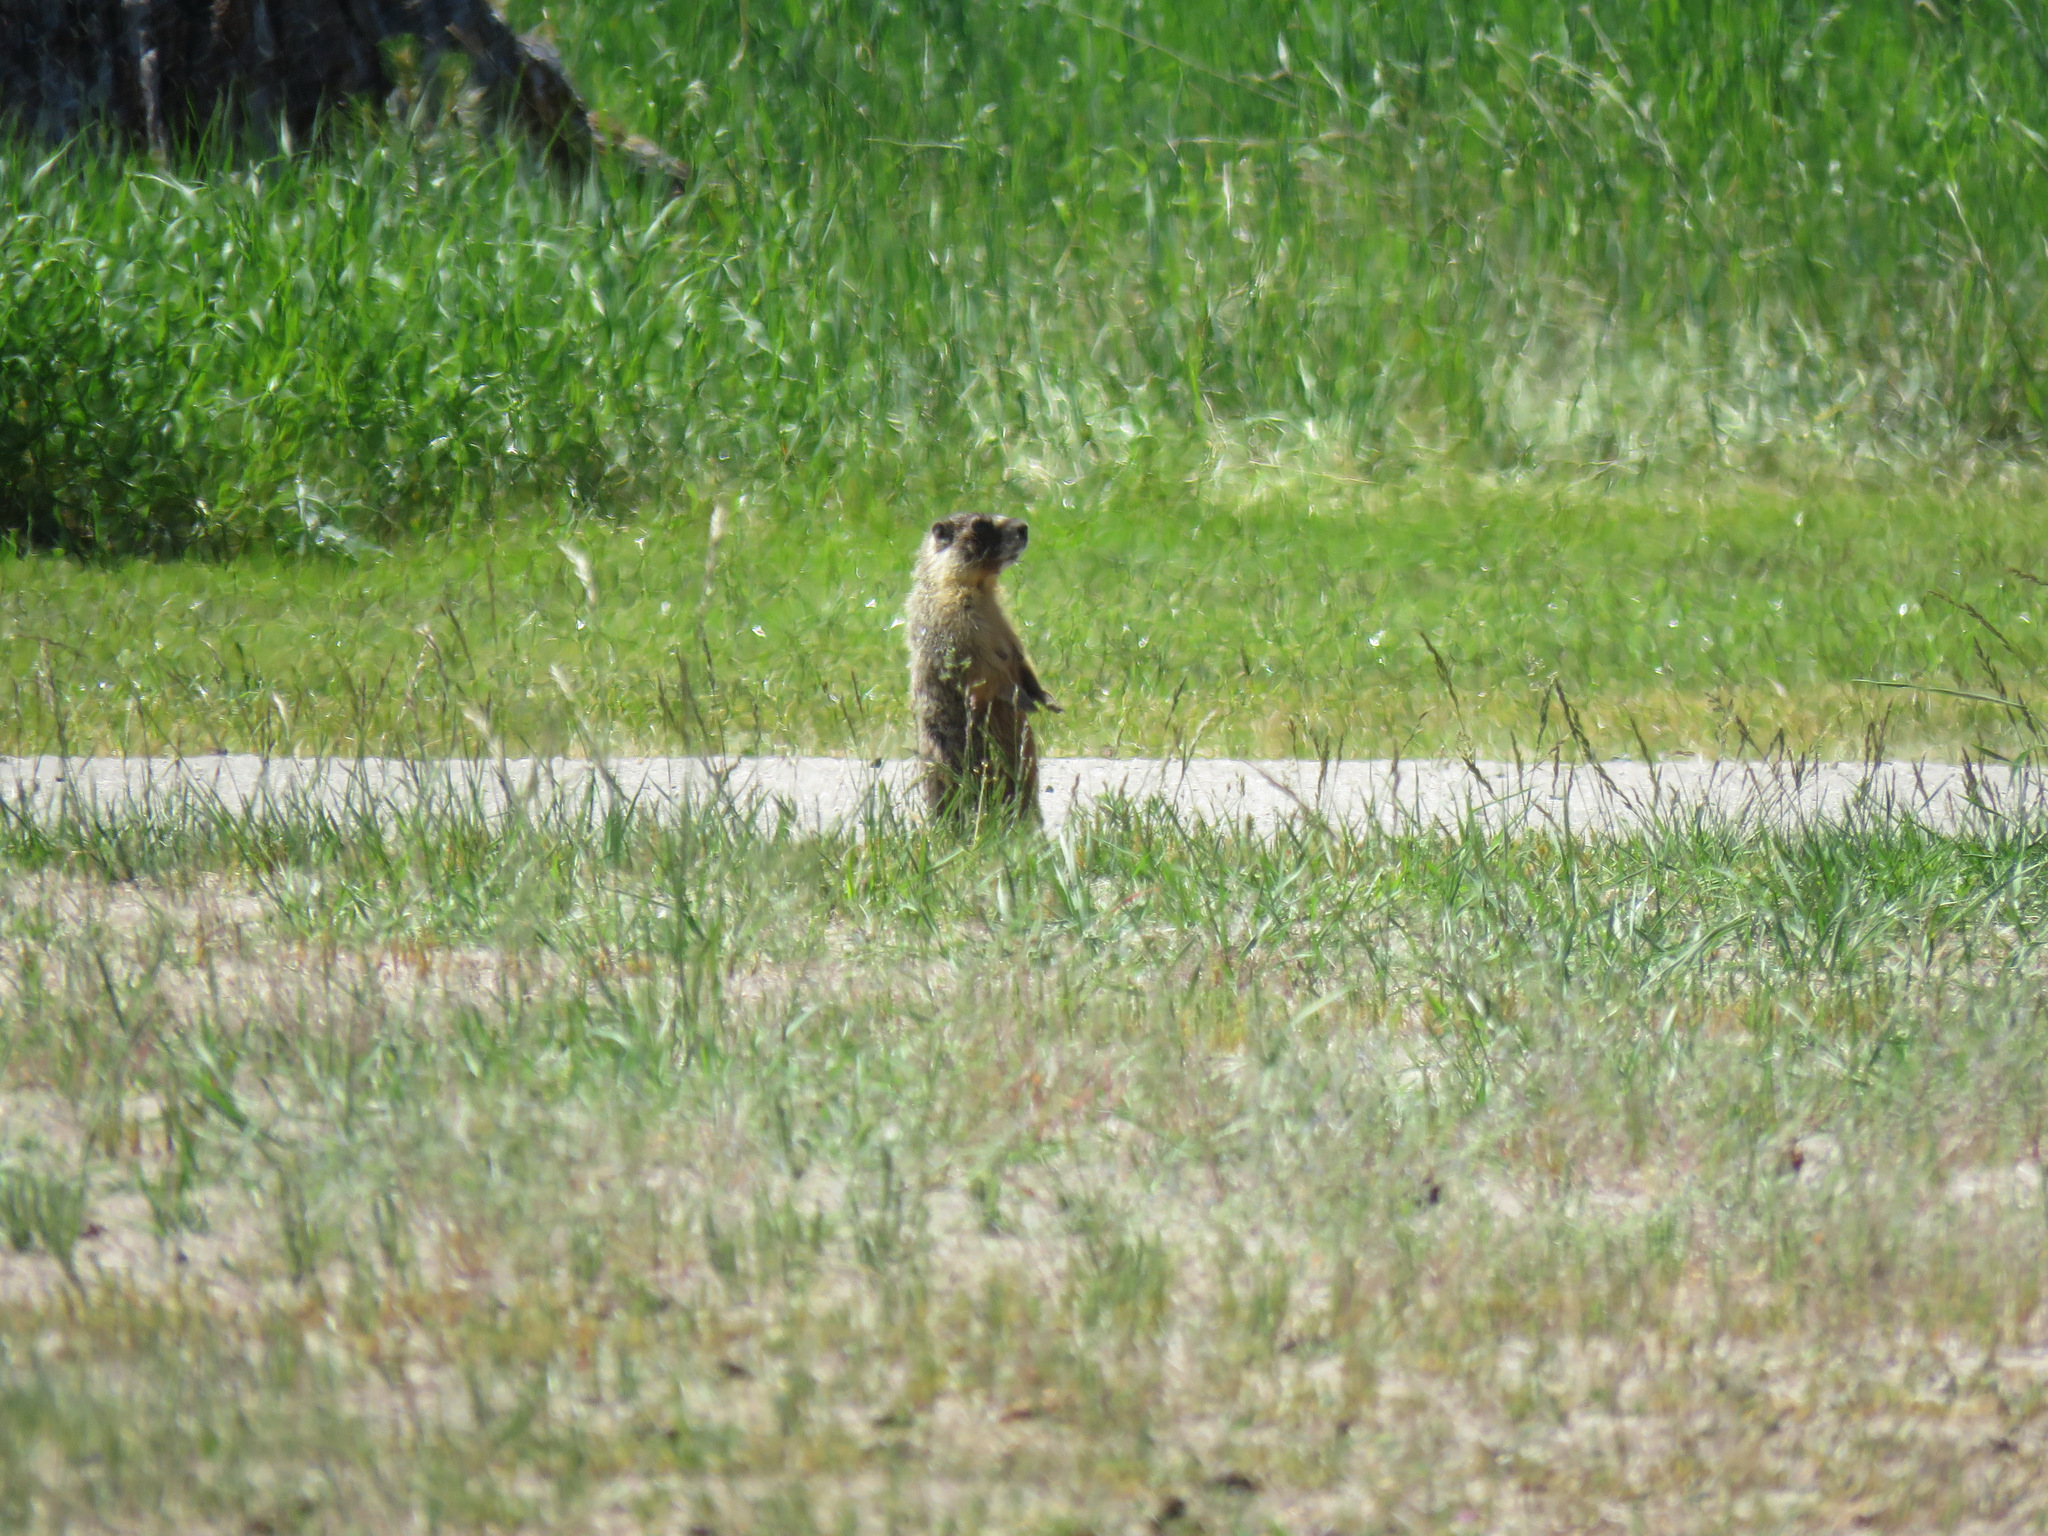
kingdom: Animalia
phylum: Chordata
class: Mammalia
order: Rodentia
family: Sciuridae
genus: Marmota
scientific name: Marmota flaviventris
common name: Yellow-bellied marmot
